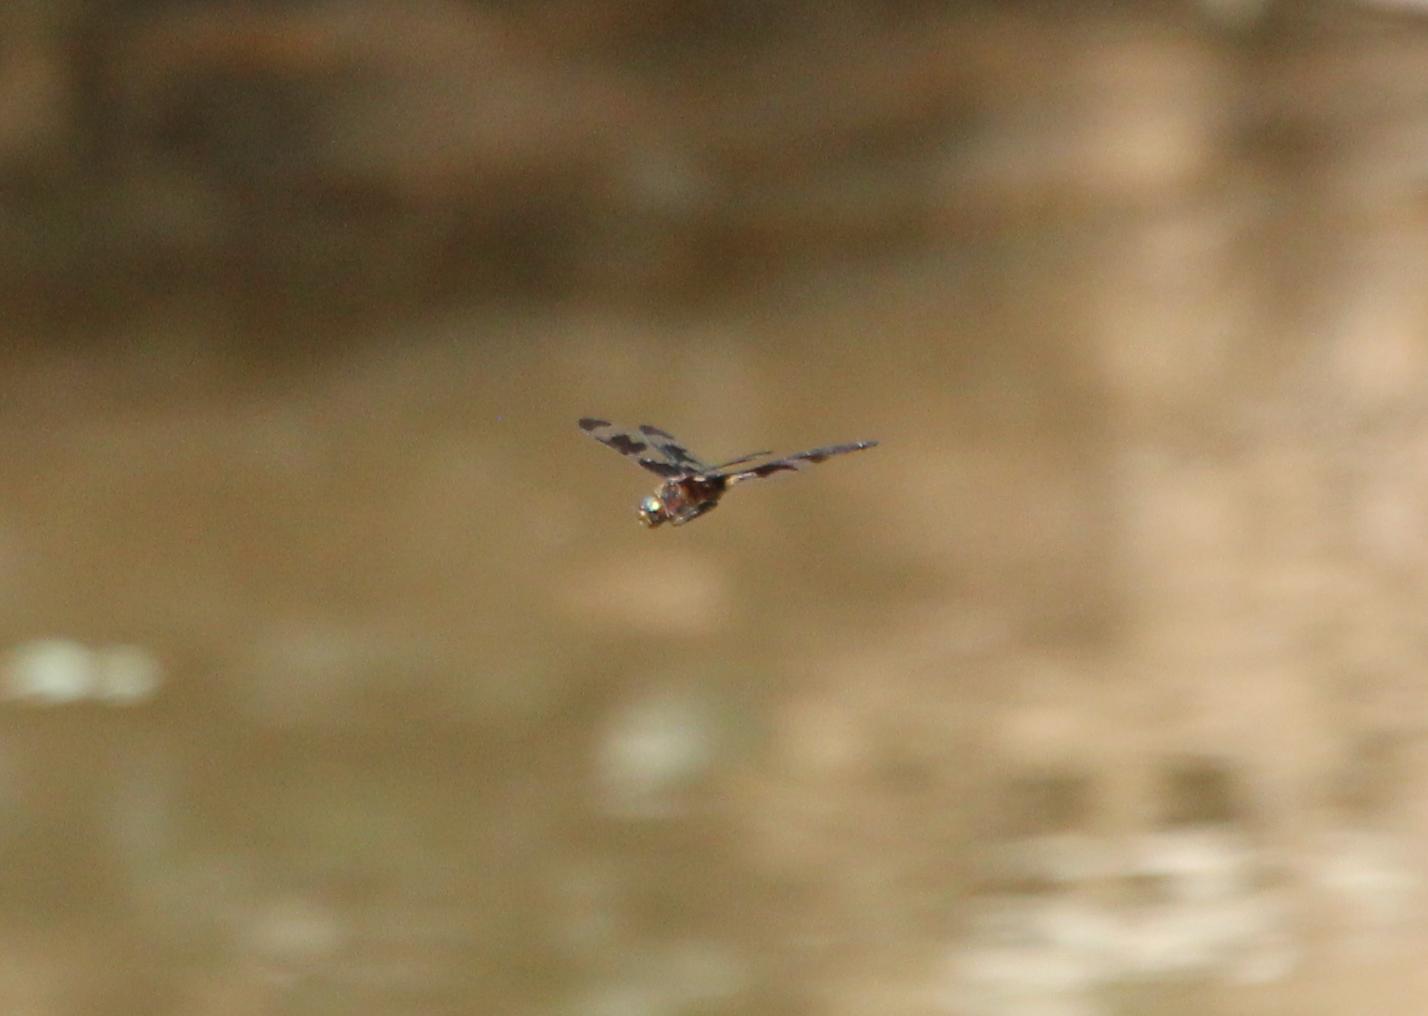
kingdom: Animalia
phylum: Arthropoda
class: Insecta
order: Odonata
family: Corduliidae
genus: Epitheca
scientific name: Epitheca princeps
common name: Prince baskettail
